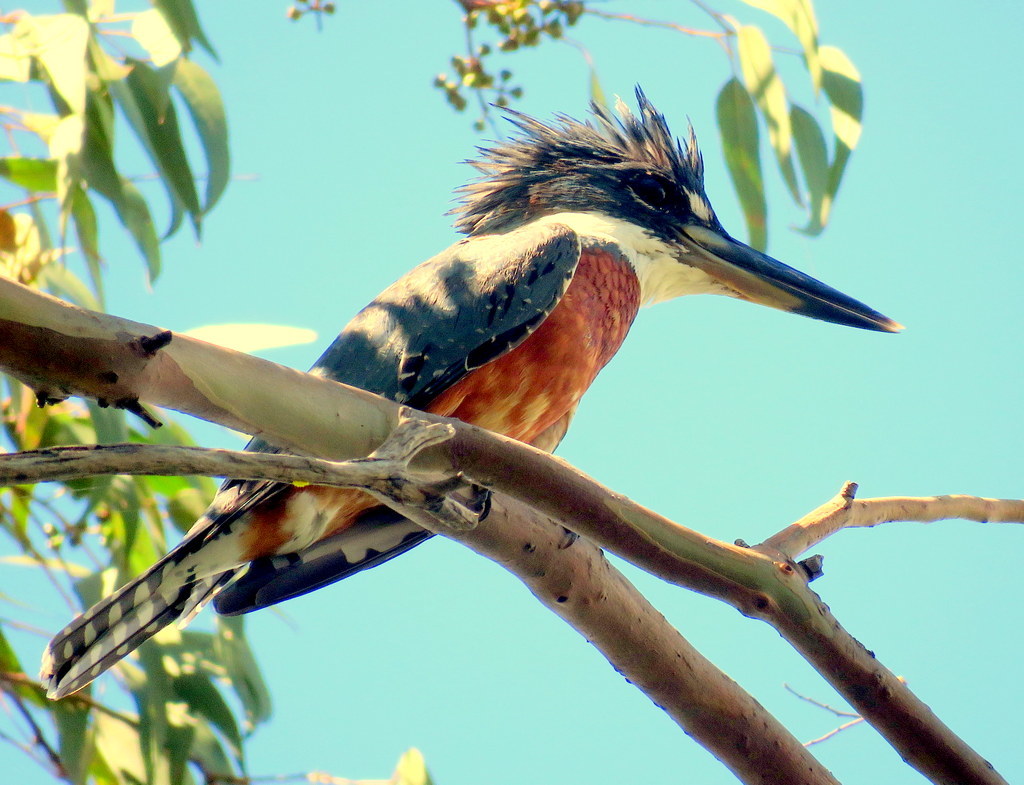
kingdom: Animalia
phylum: Chordata
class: Aves
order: Coraciiformes
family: Alcedinidae
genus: Megaceryle
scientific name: Megaceryle torquata
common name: Ringed kingfisher
